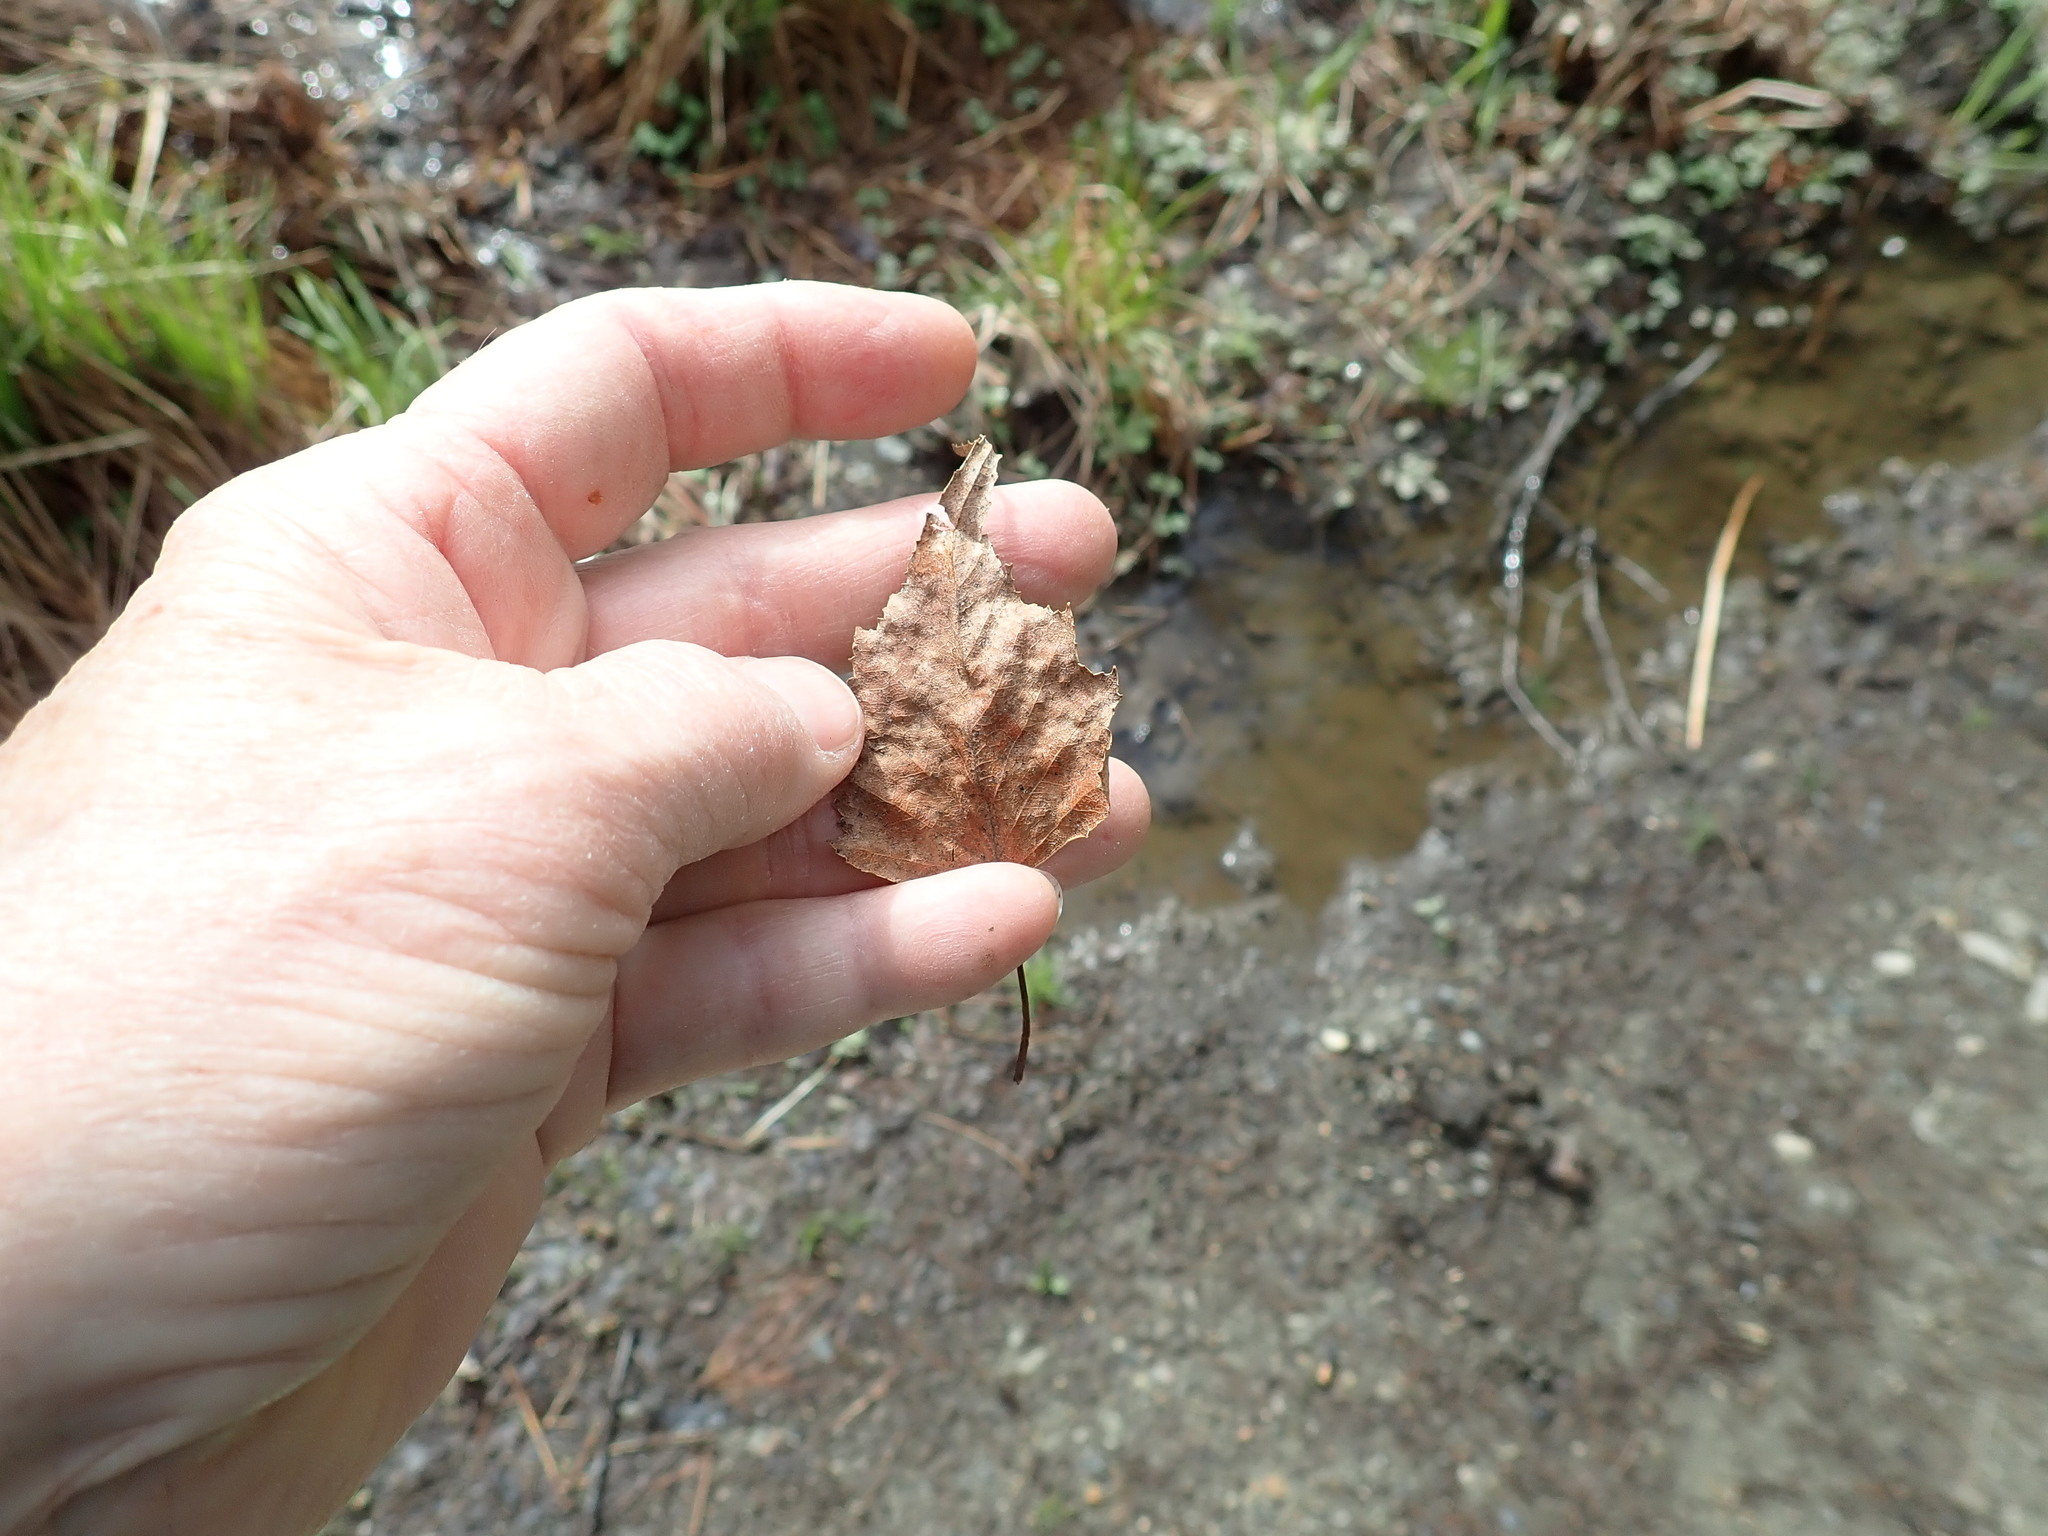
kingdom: Plantae
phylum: Tracheophyta
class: Magnoliopsida
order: Fagales
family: Betulaceae
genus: Betula
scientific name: Betula populifolia
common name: Fire birch
